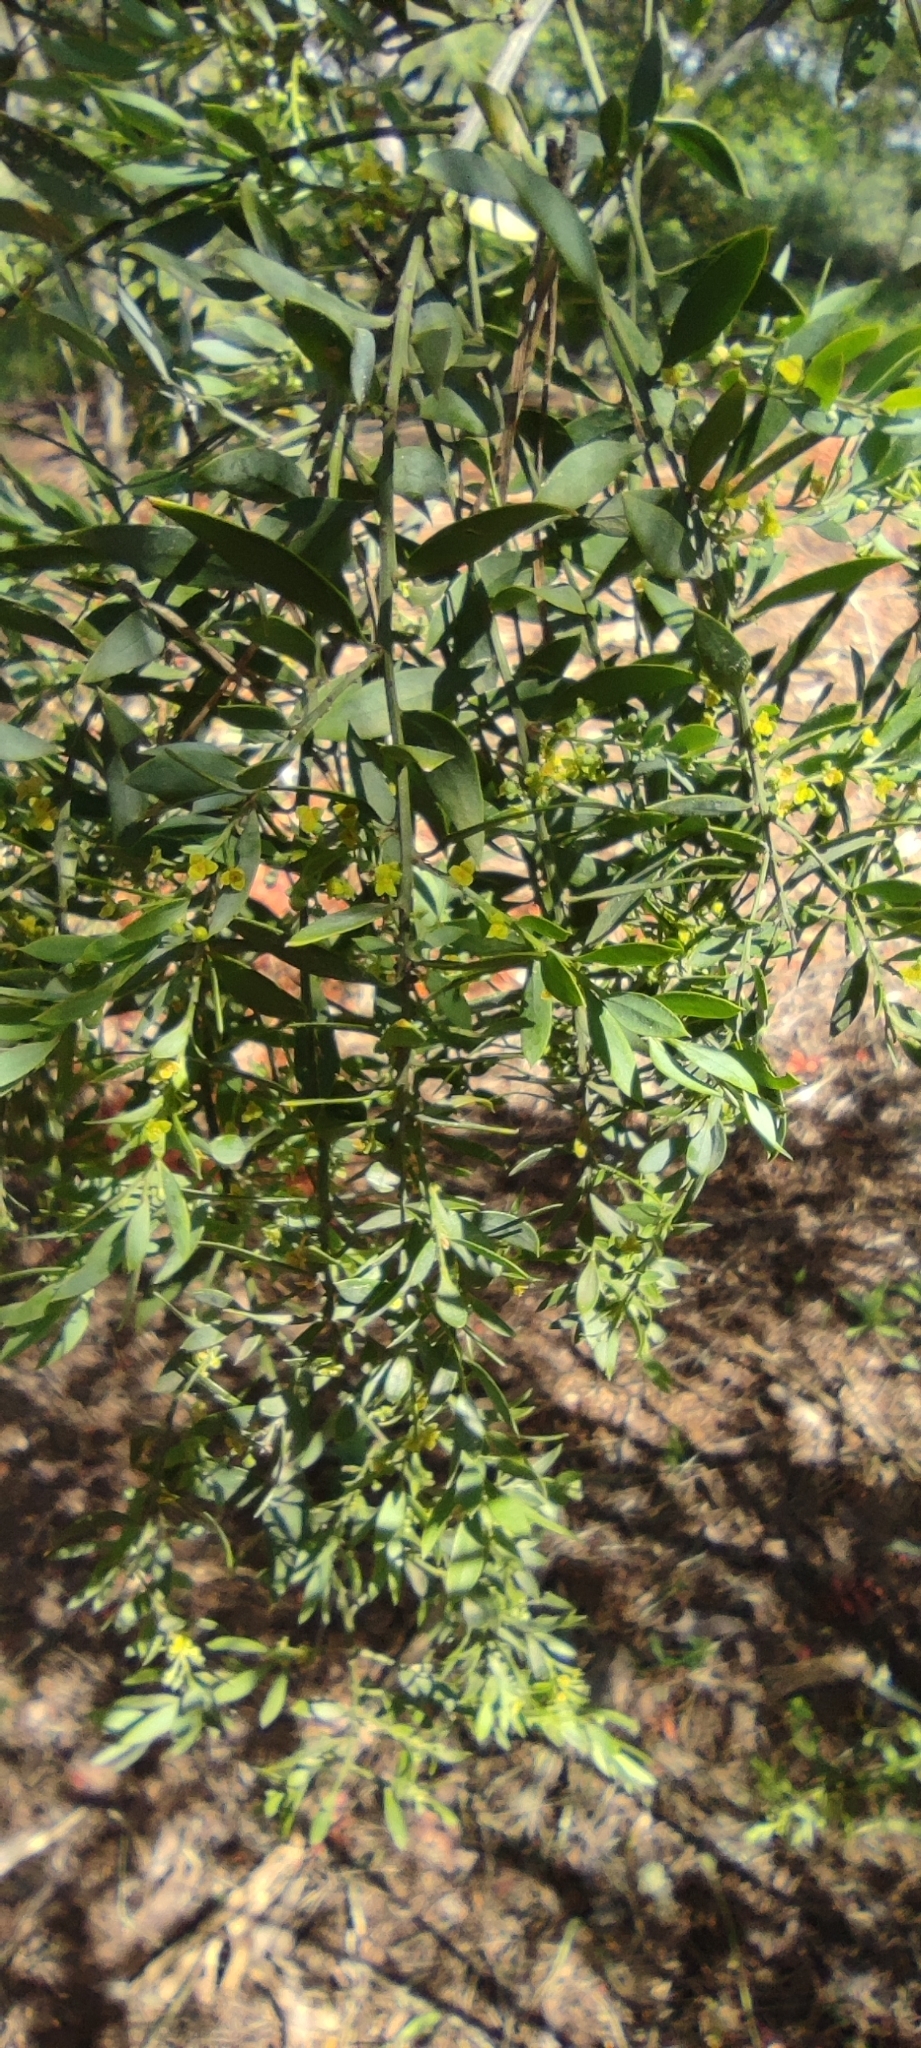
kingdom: Plantae
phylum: Tracheophyta
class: Magnoliopsida
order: Santalales
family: Santalaceae
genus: Osyris
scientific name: Osyris lanceolata
